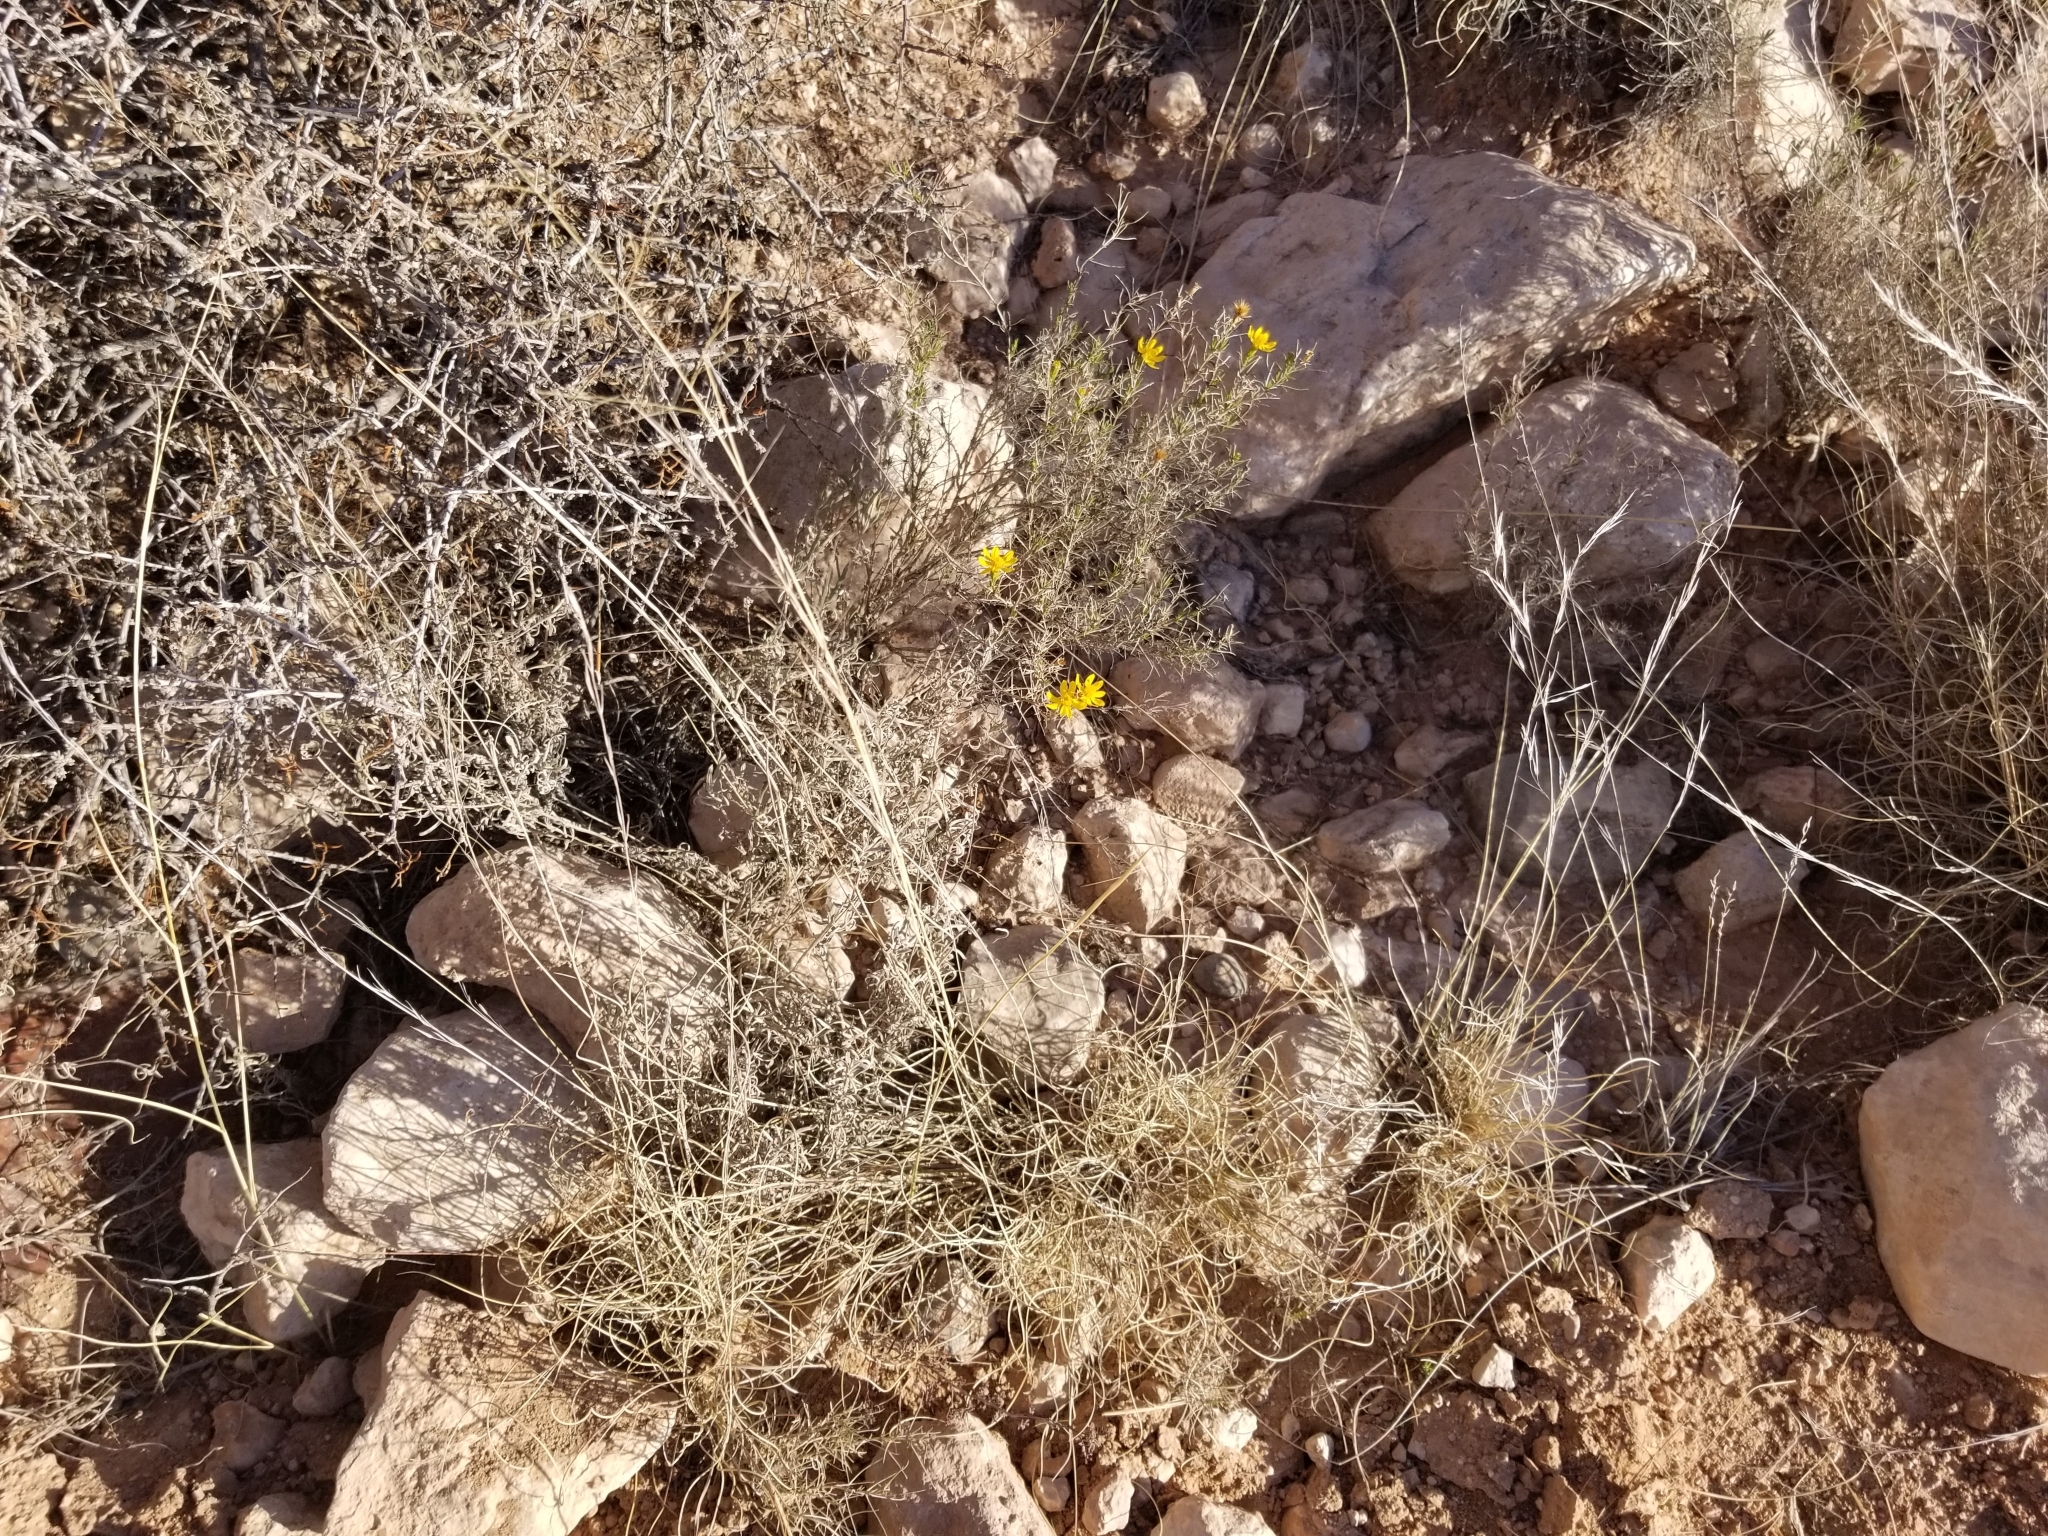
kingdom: Plantae
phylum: Tracheophyta
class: Magnoliopsida
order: Asterales
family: Asteraceae
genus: Gutierrezia
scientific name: Gutierrezia sarothrae
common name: Broom snakeweed
